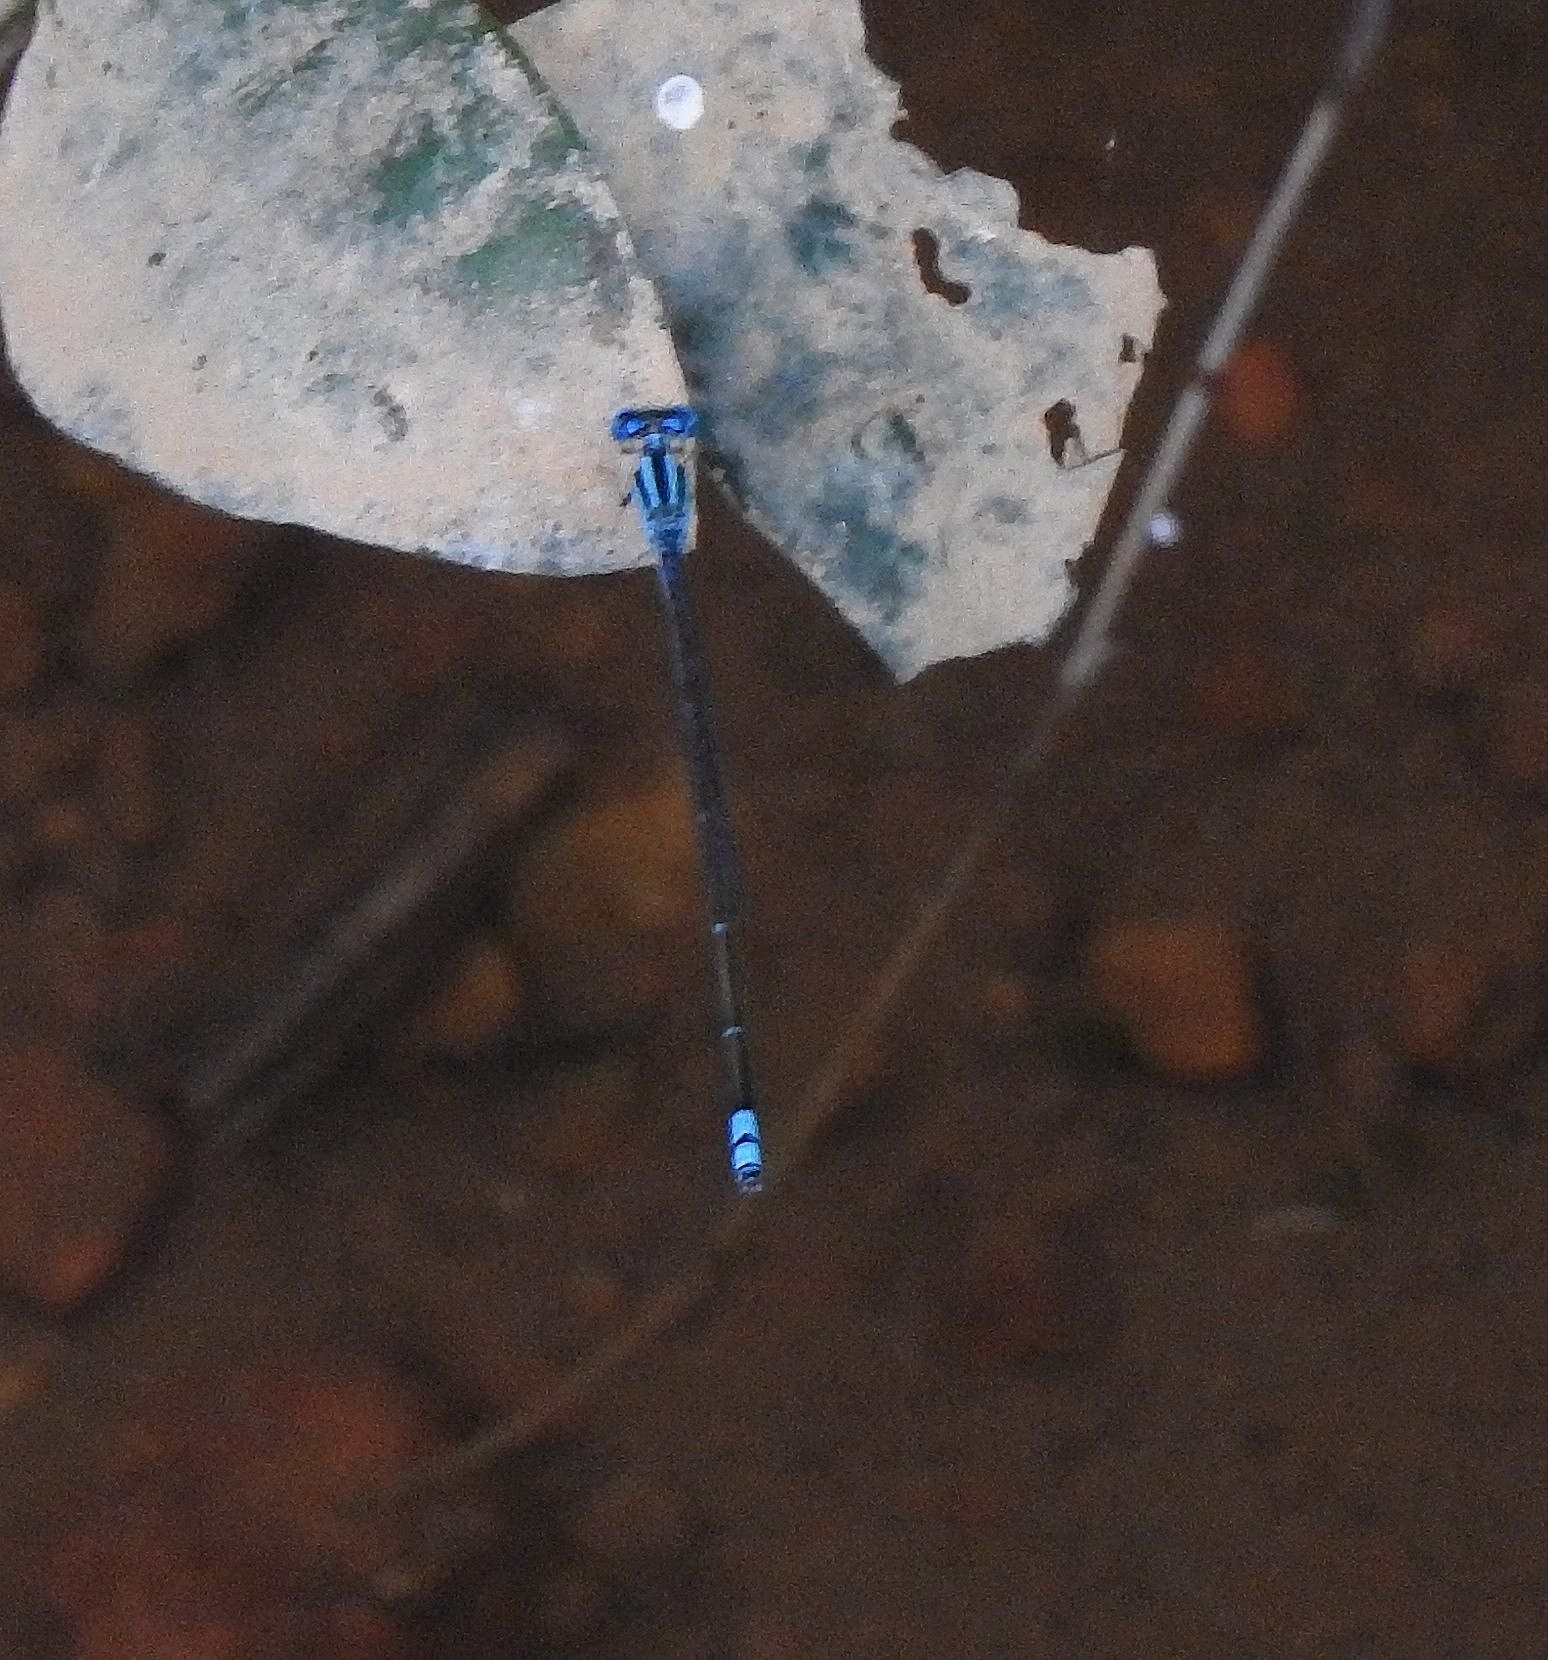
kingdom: Animalia
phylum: Arthropoda
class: Insecta
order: Odonata
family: Coenagrionidae
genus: Pseudagrion
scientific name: Pseudagrion microcephalum
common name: Blue riverdamsel
